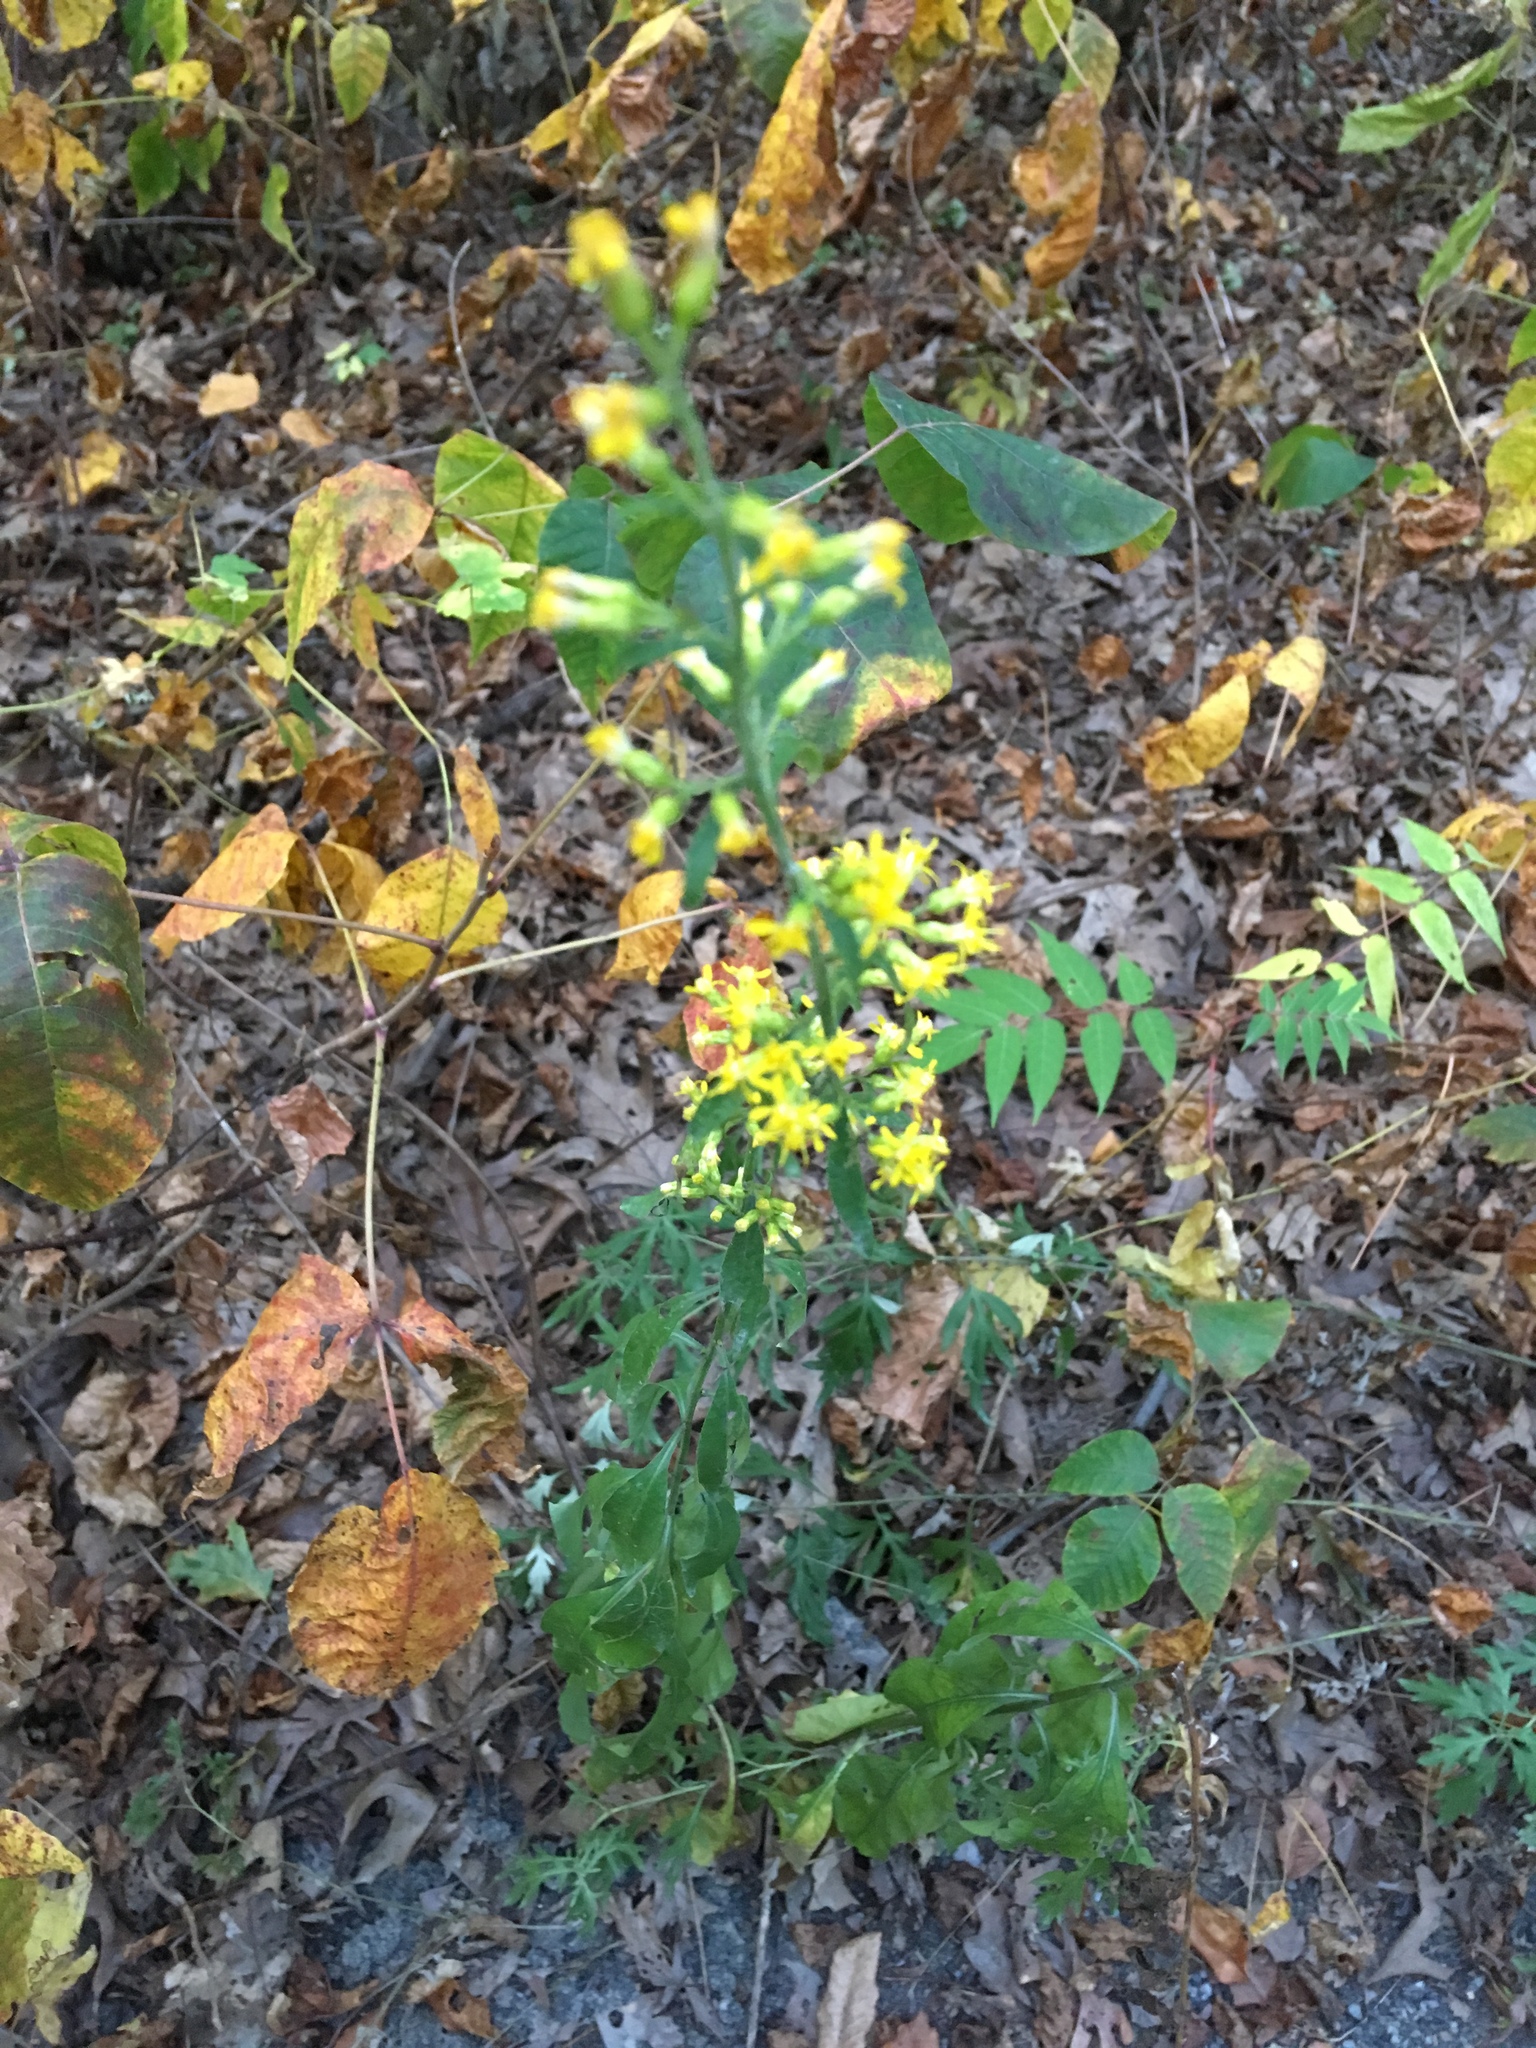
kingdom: Plantae
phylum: Tracheophyta
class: Magnoliopsida
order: Asterales
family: Asteraceae
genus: Solidago
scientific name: Solidago speciosa
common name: Showy goldenrod
